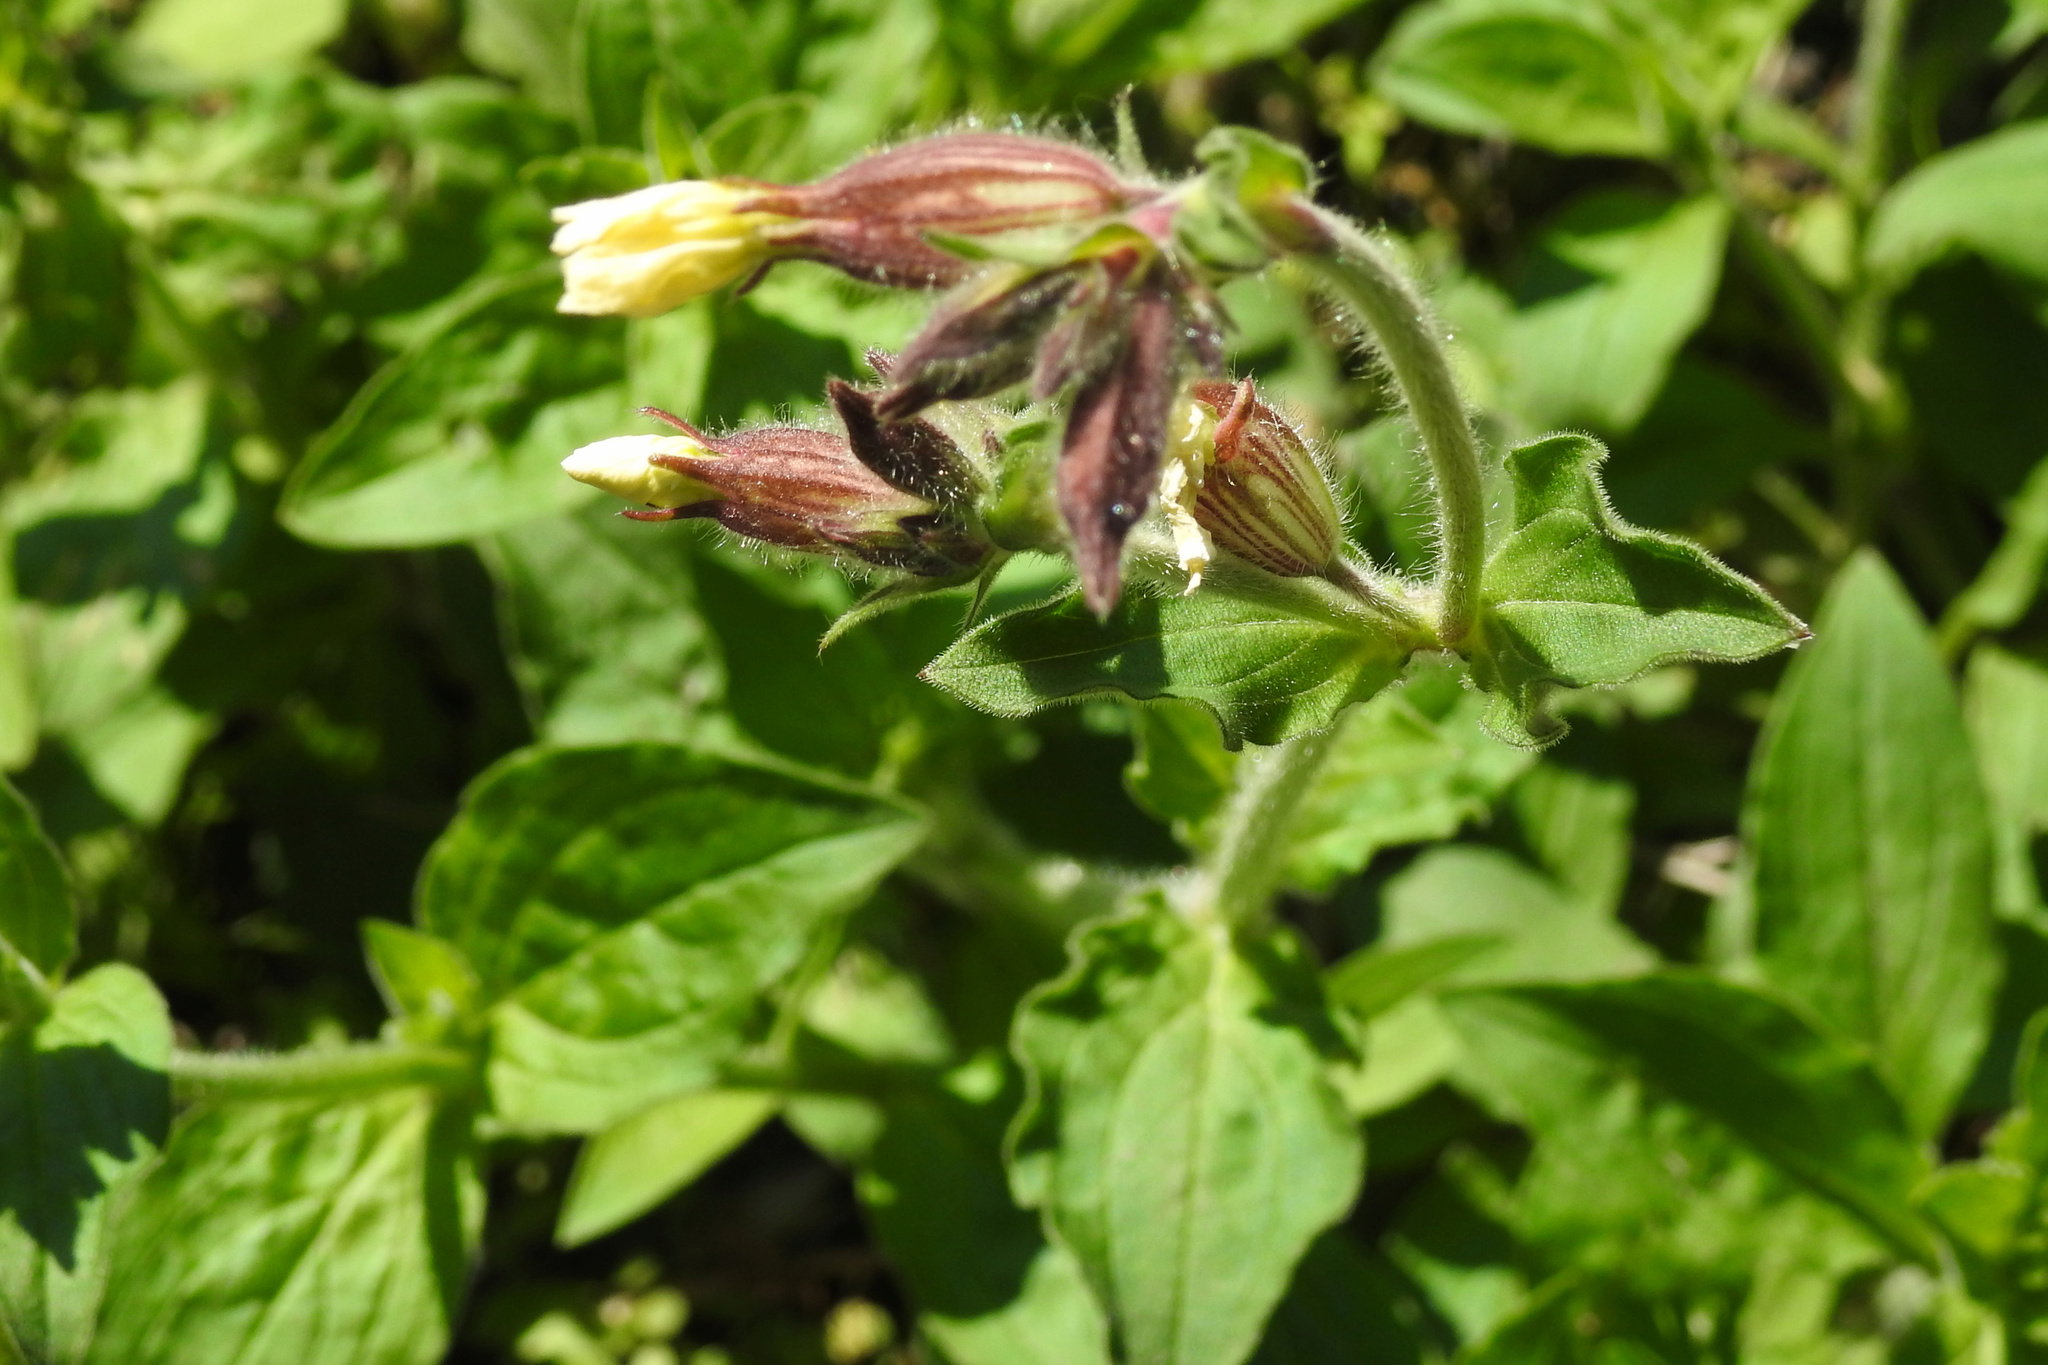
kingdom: Plantae
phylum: Tracheophyta
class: Magnoliopsida
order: Caryophyllales
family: Caryophyllaceae
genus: Silene
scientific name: Silene latifolia
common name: White campion
